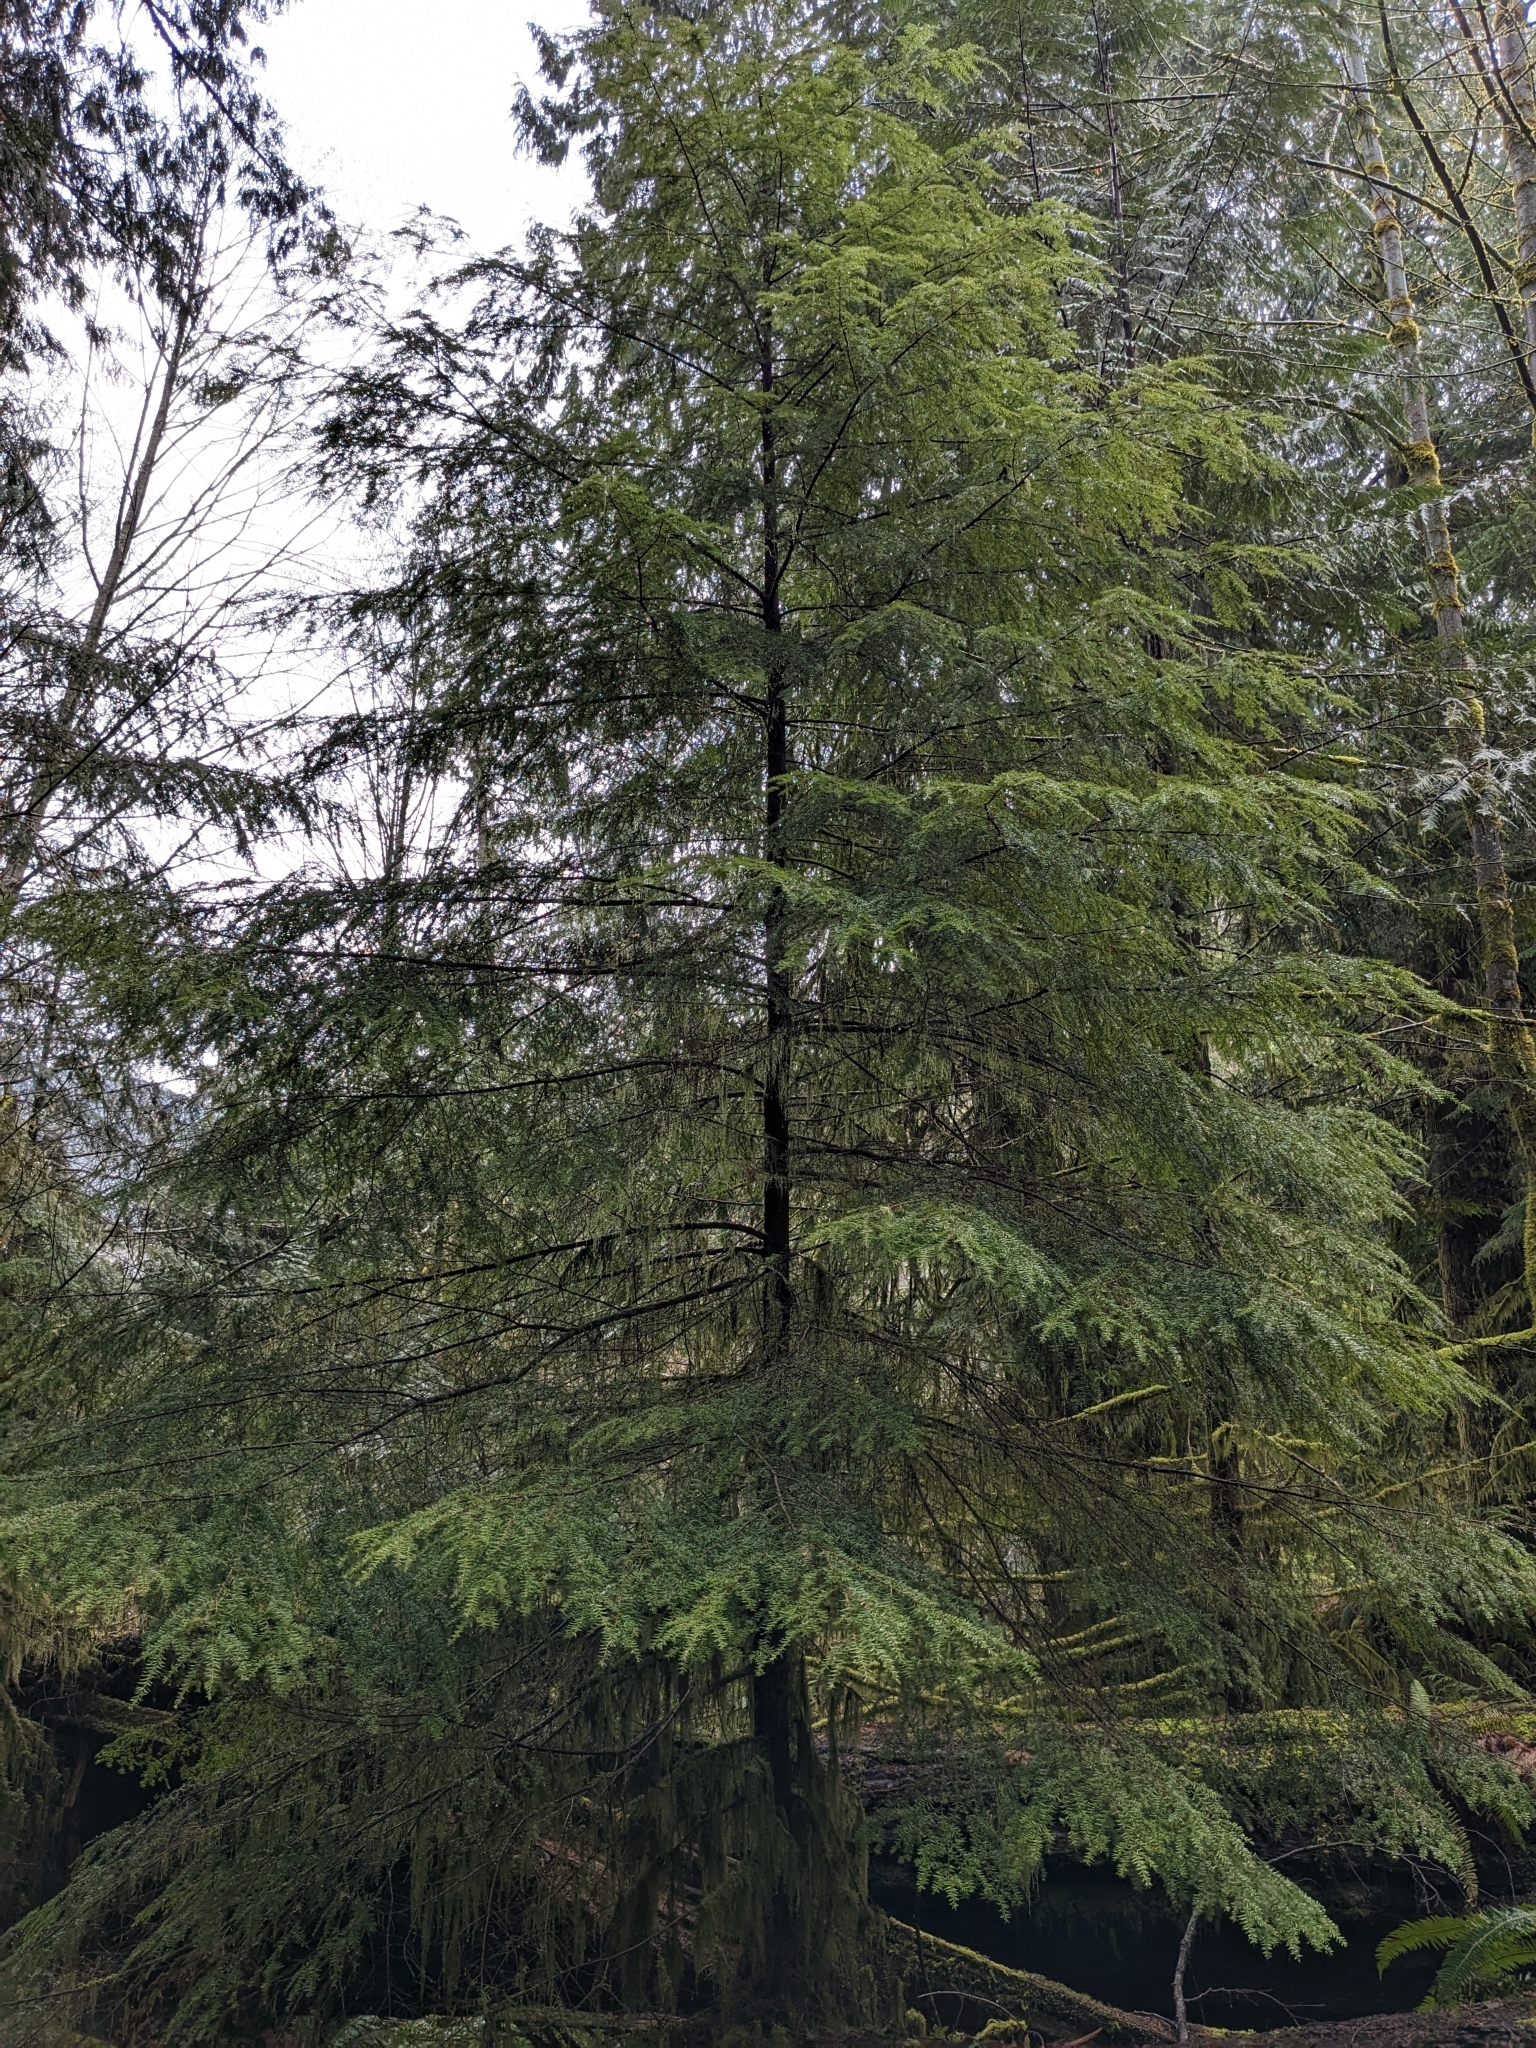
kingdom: Plantae
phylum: Tracheophyta
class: Pinopsida
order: Pinales
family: Pinaceae
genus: Tsuga
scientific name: Tsuga heterophylla
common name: Western hemlock
